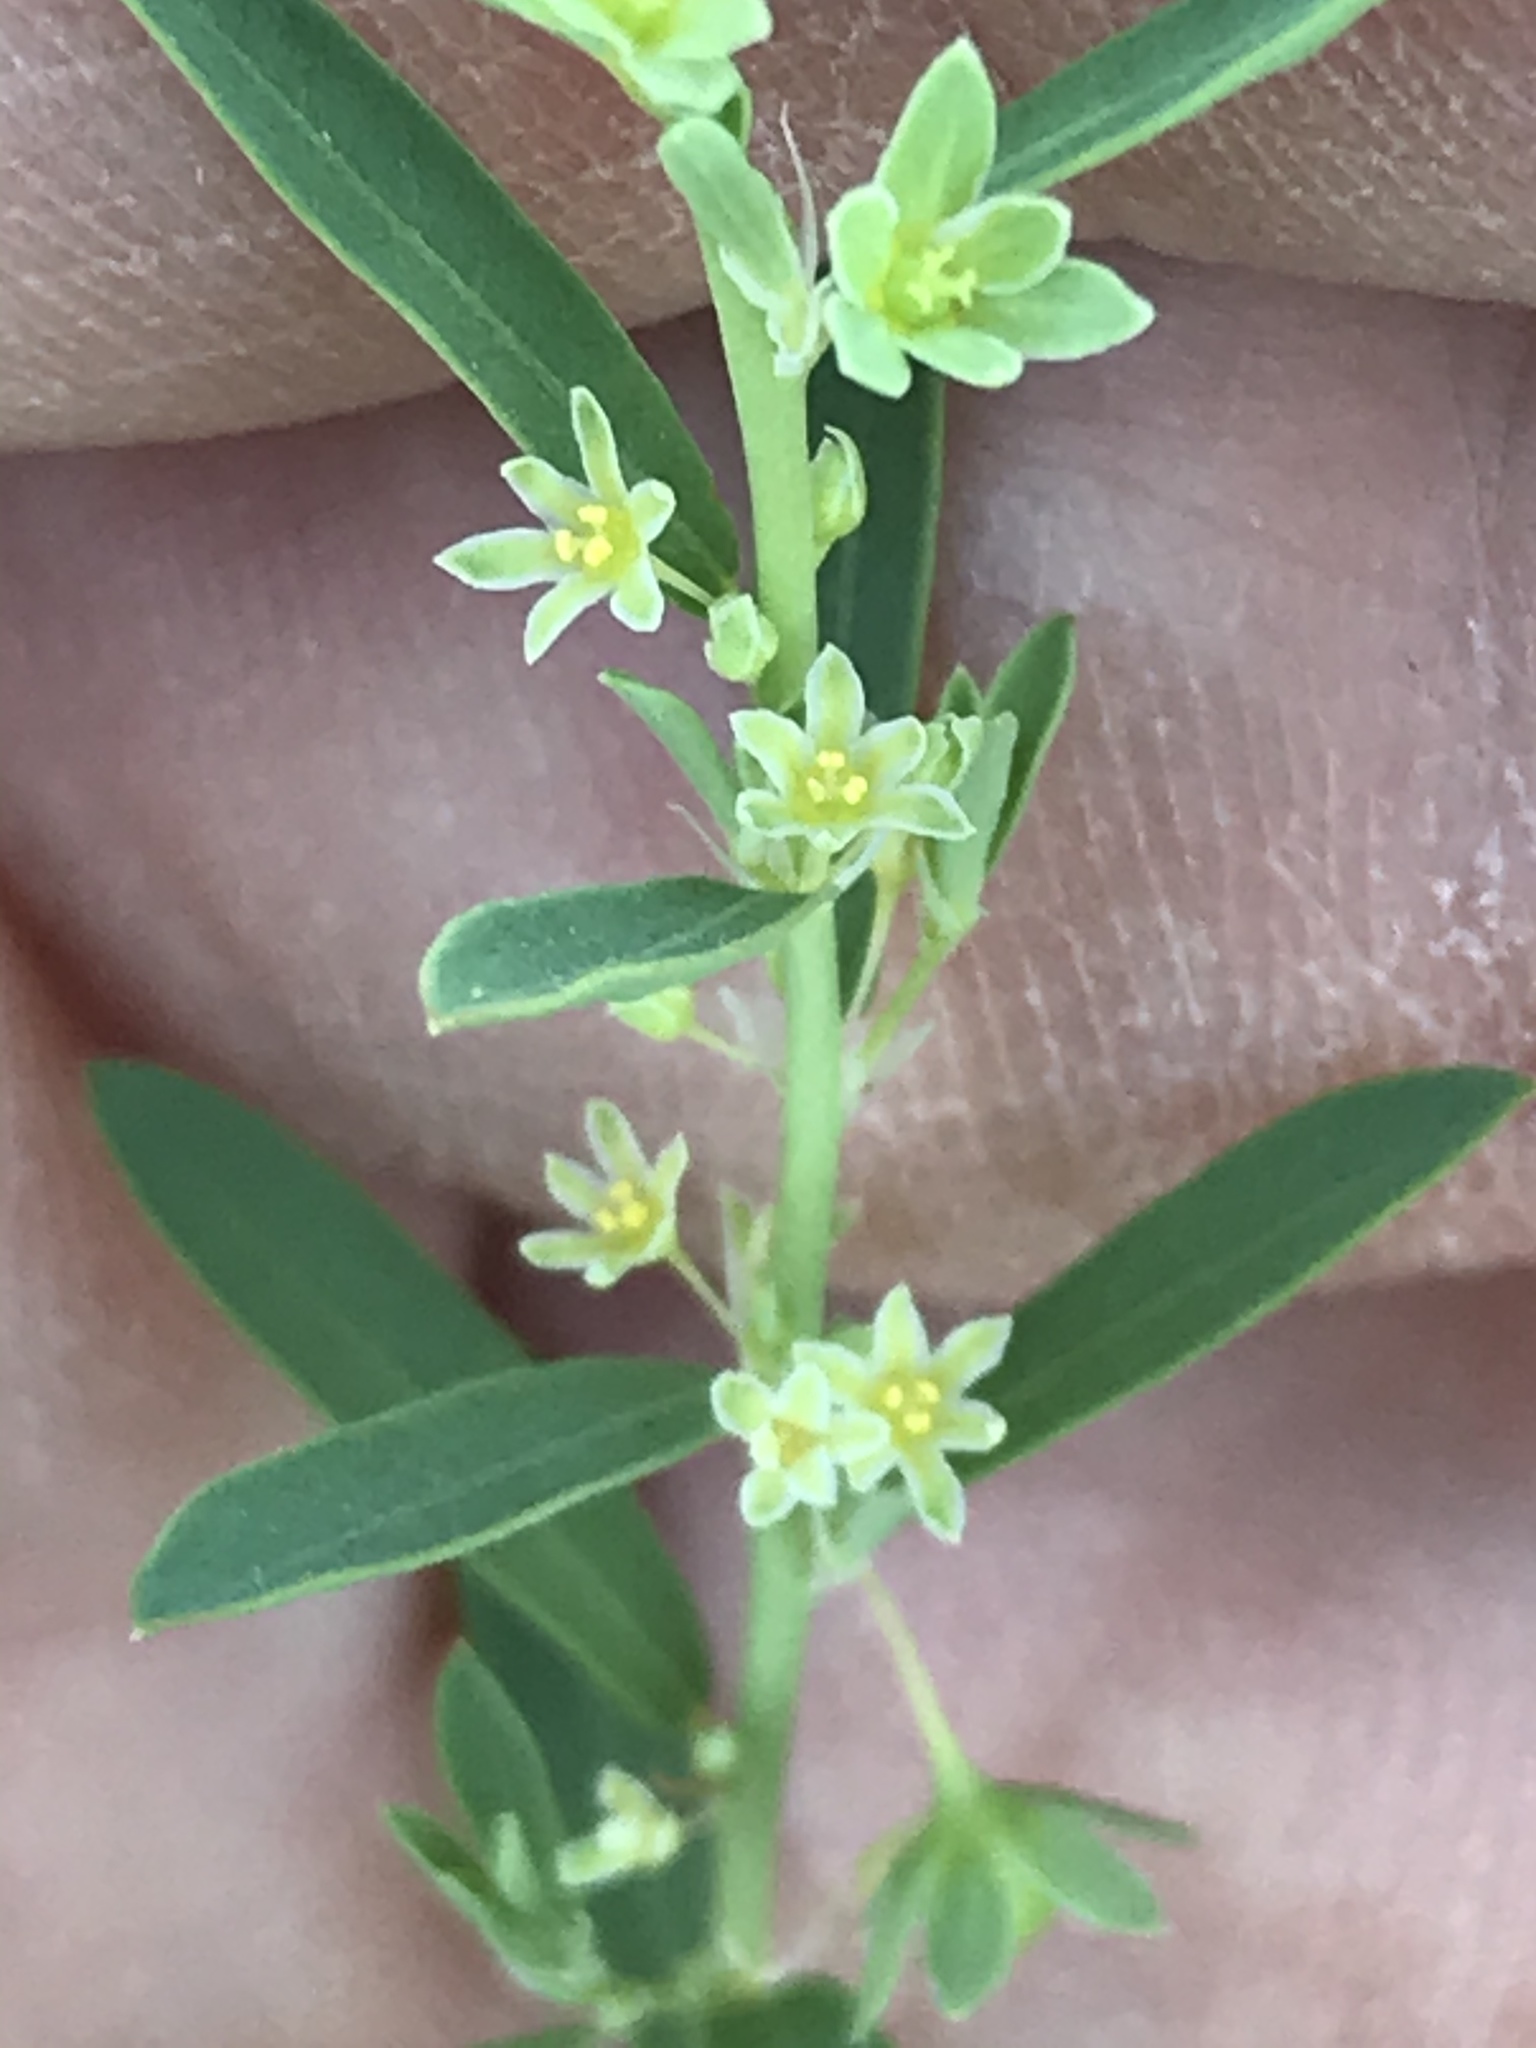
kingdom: Plantae
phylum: Tracheophyta
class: Magnoliopsida
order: Malpighiales
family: Phyllanthaceae
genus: Phyllanthus
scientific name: Phyllanthus polygonoides
